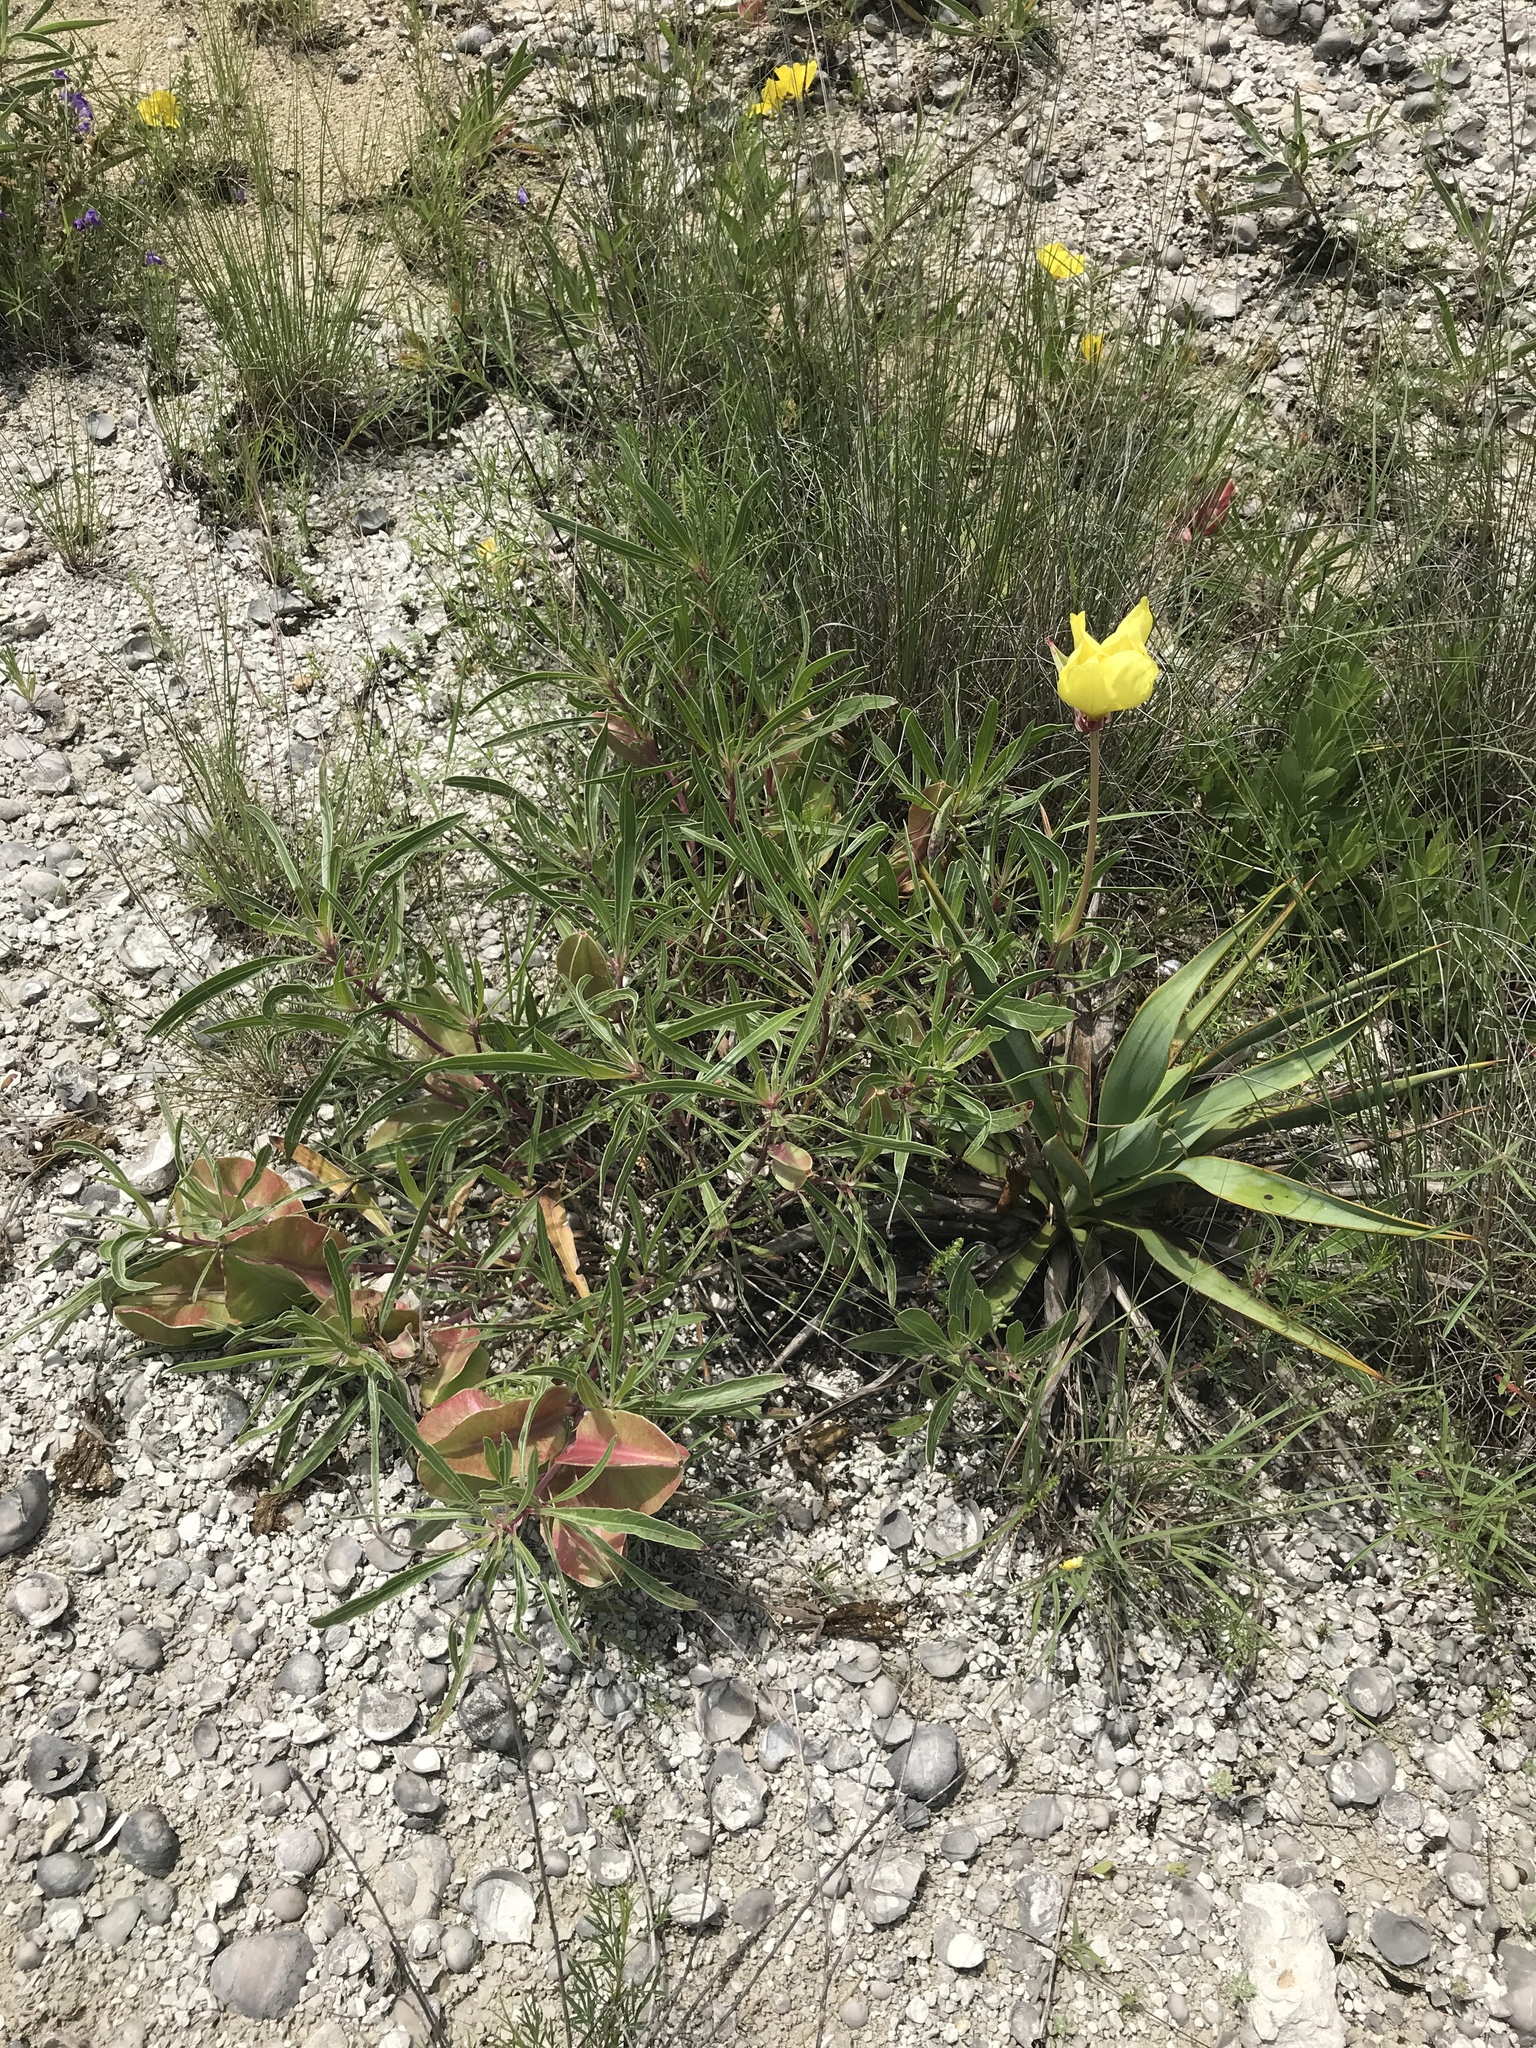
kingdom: Plantae
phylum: Tracheophyta
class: Magnoliopsida
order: Myrtales
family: Onagraceae
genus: Oenothera
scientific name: Oenothera macrocarpa
